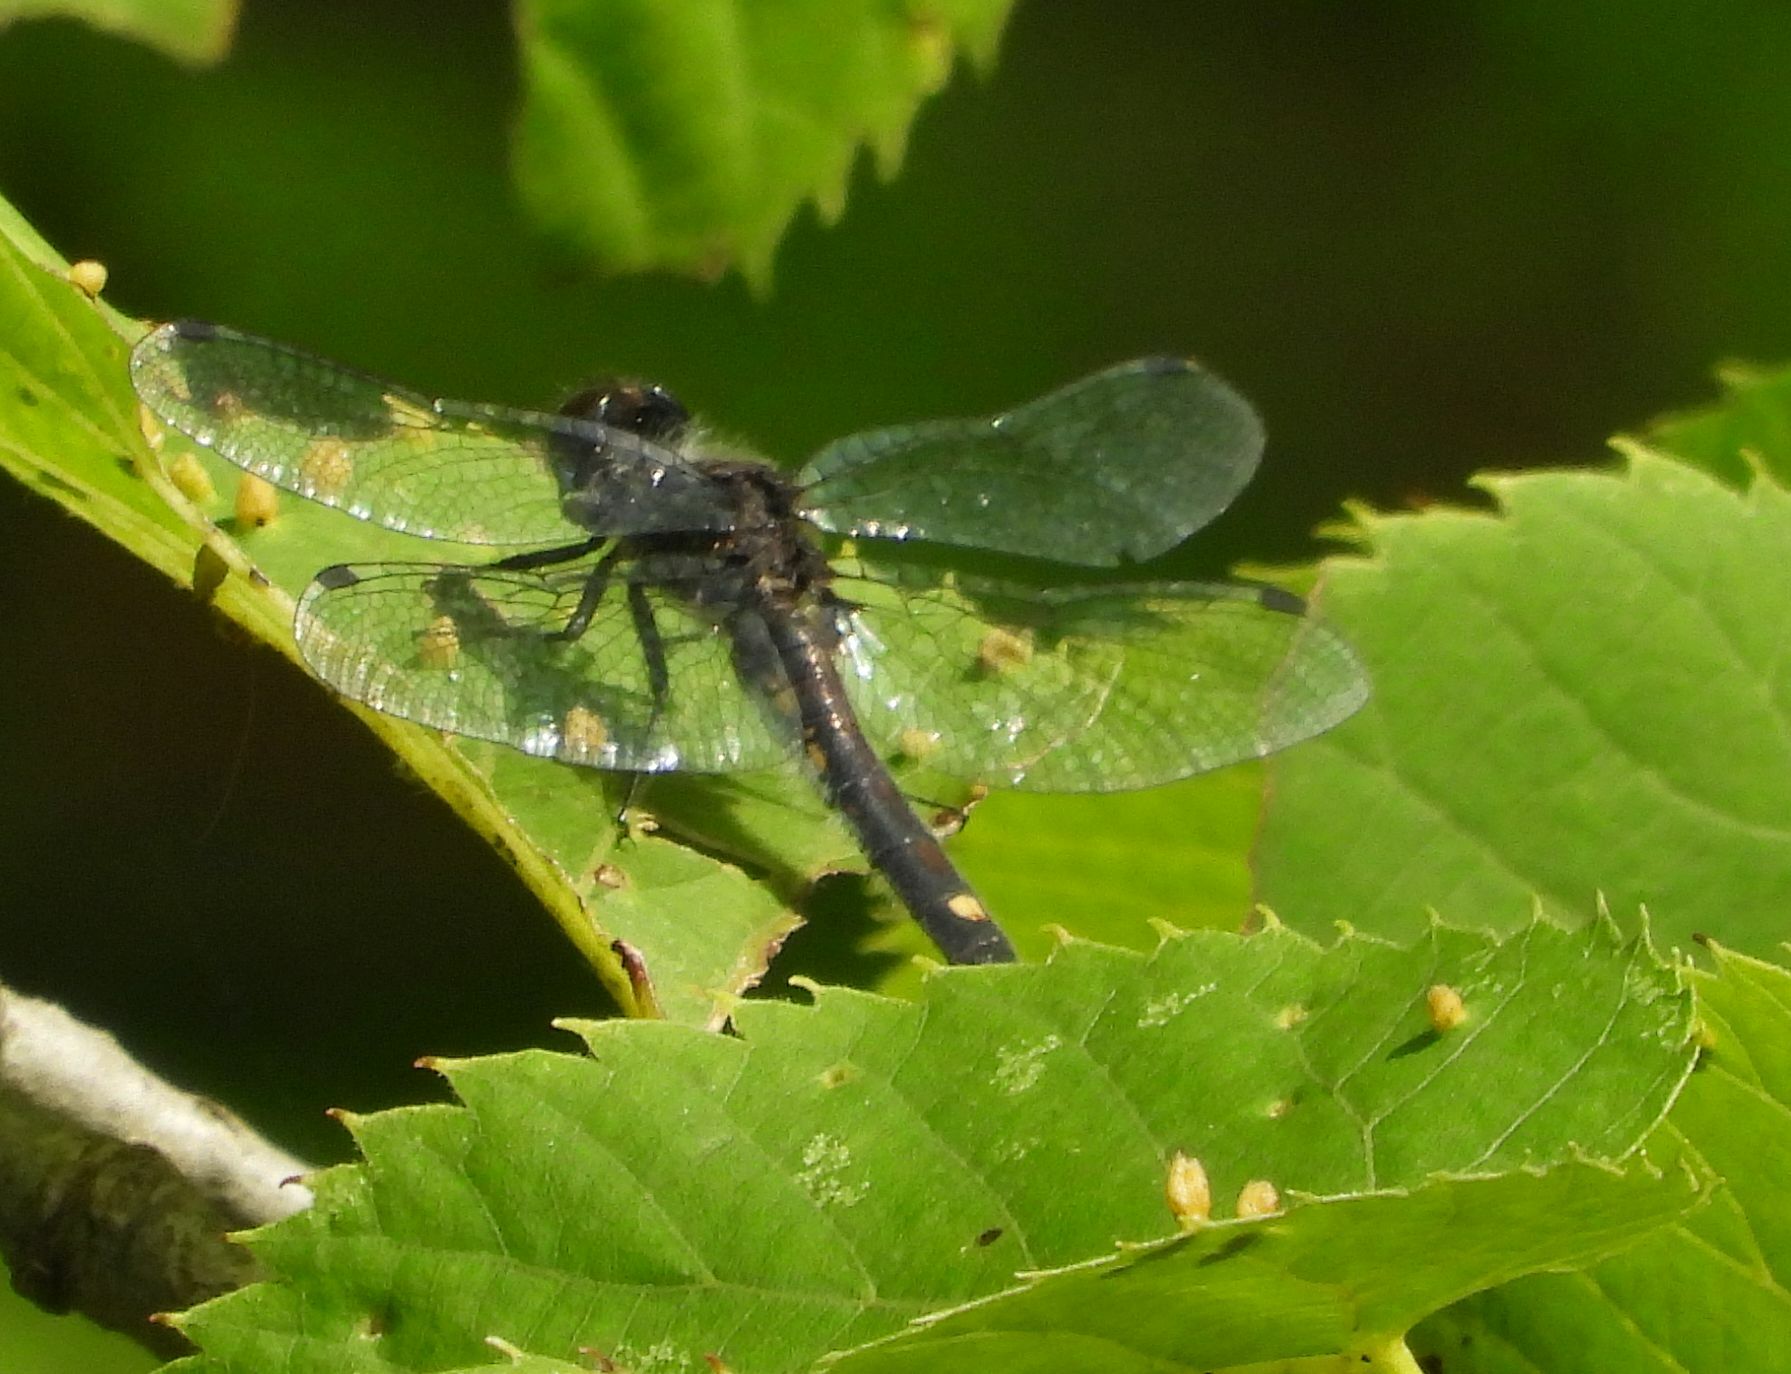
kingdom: Animalia
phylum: Arthropoda
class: Insecta
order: Odonata
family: Libellulidae
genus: Leucorrhinia
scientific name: Leucorrhinia intacta
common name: Dot-tailed whiteface
